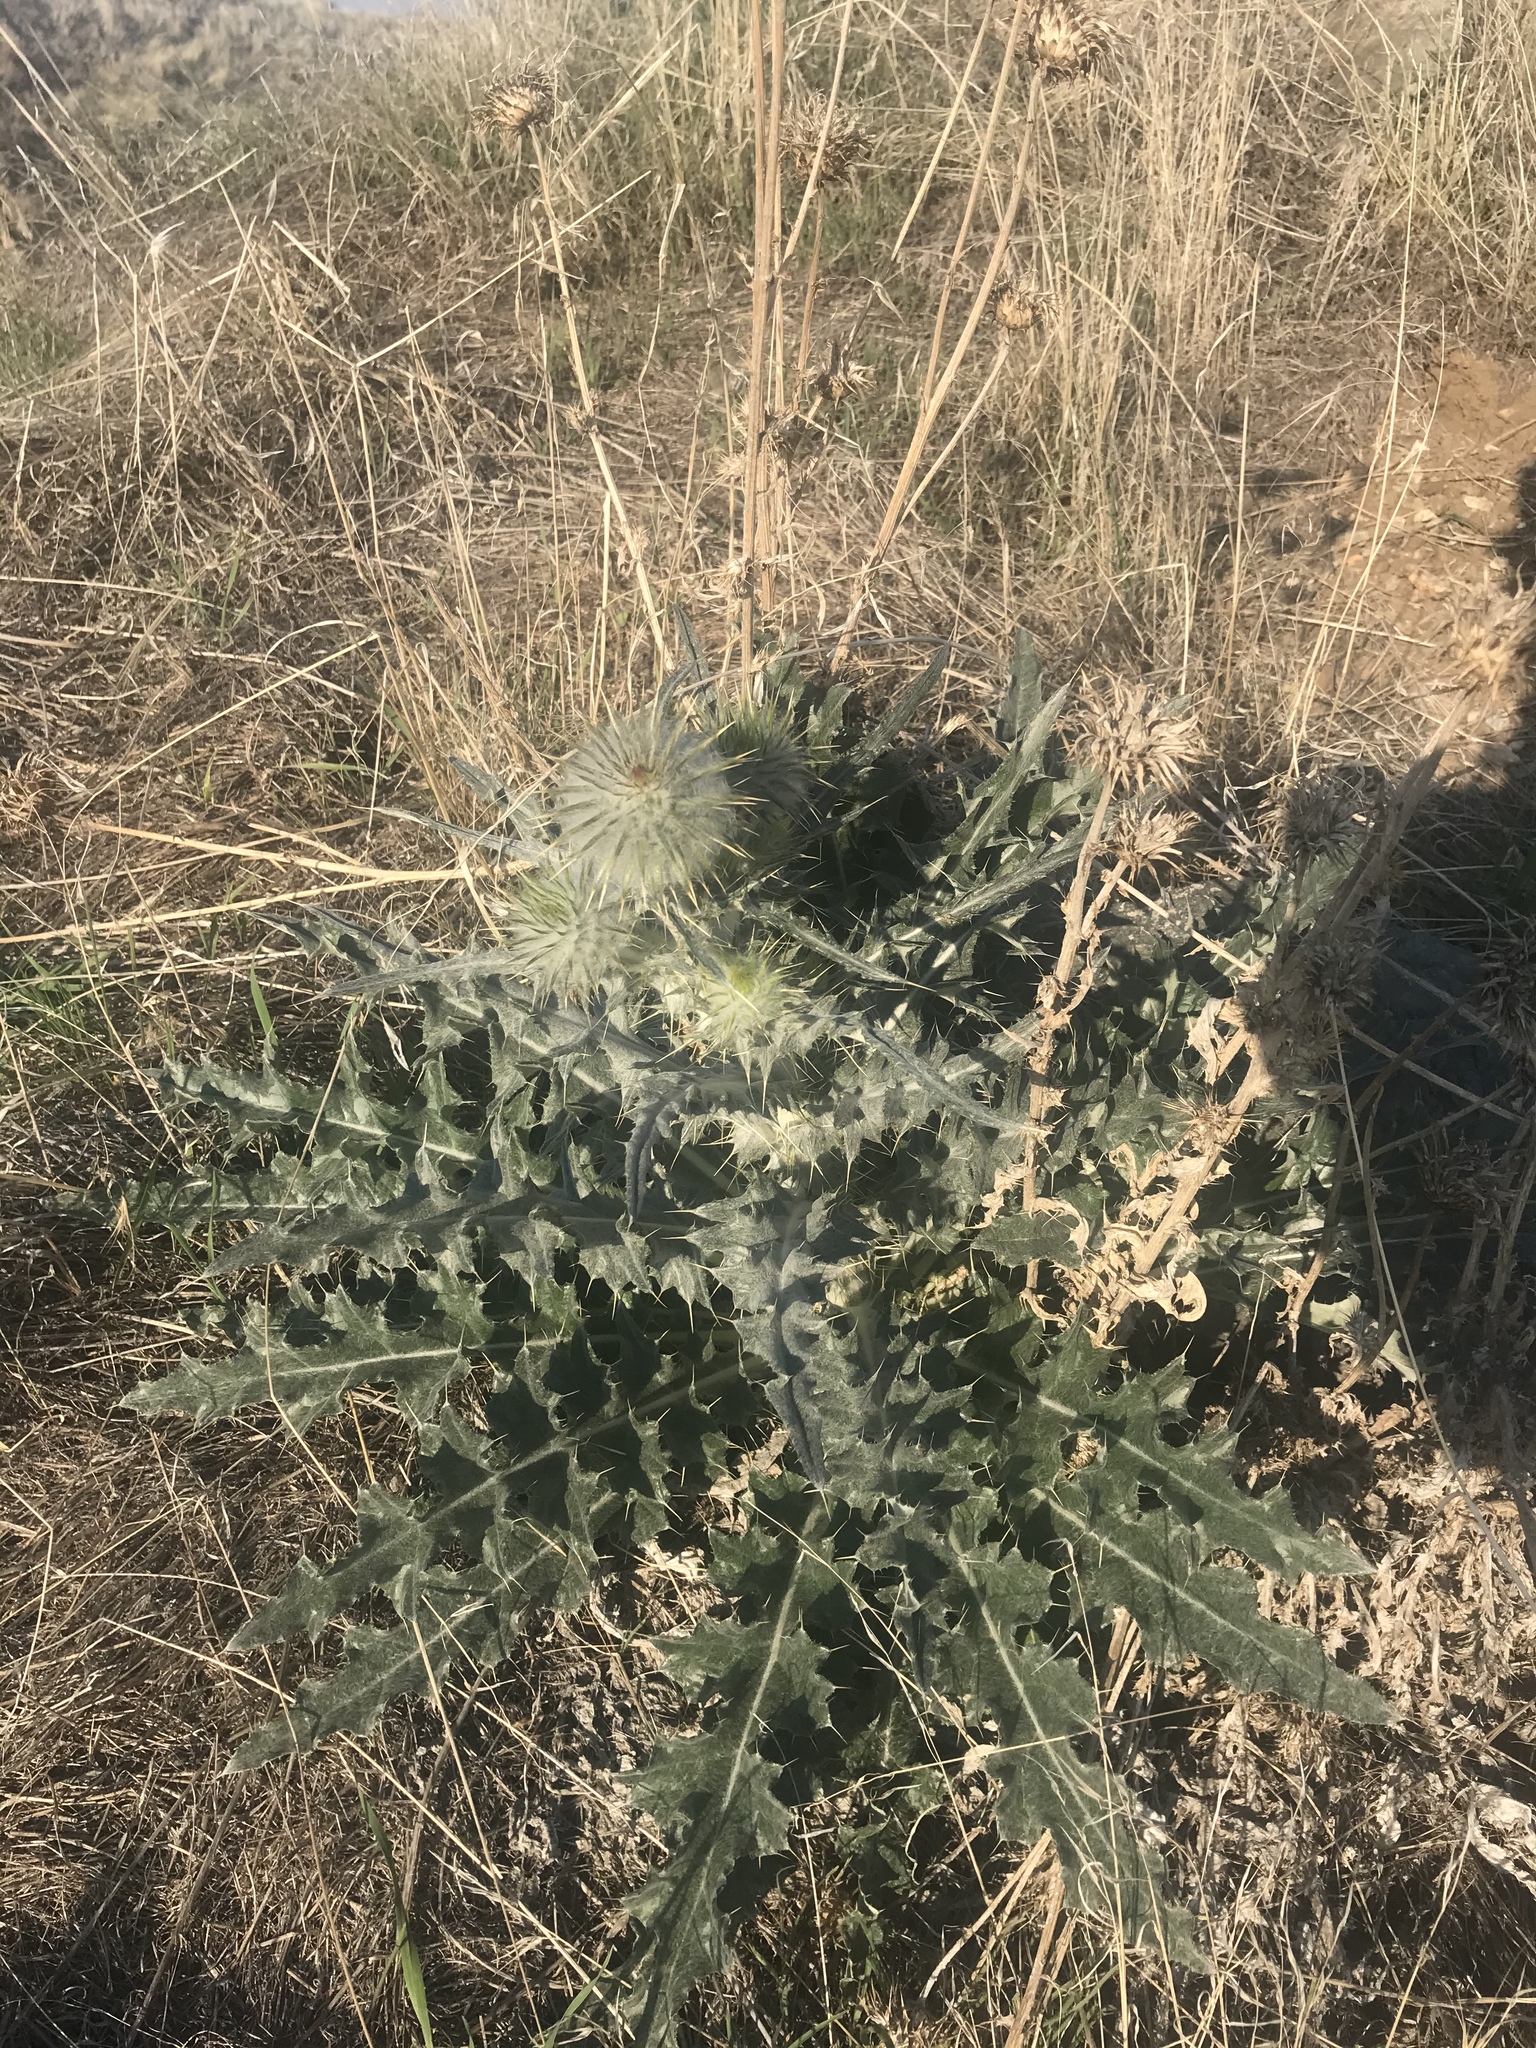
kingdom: Plantae
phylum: Tracheophyta
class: Magnoliopsida
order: Asterales
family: Asteraceae
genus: Cirsium
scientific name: Cirsium occidentale
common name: Western thistle
